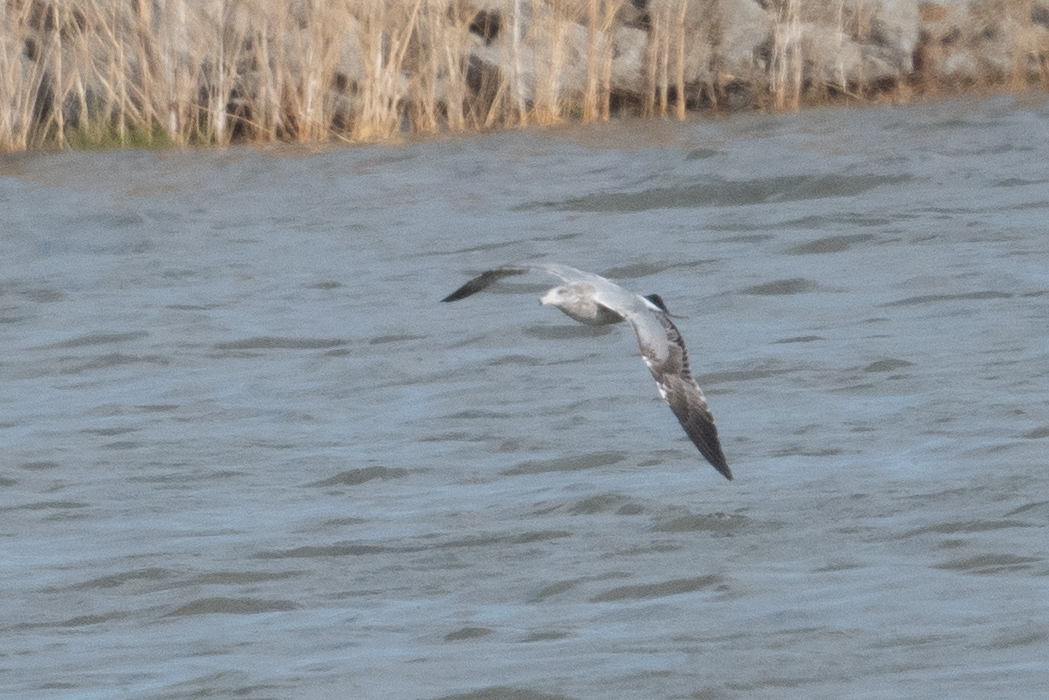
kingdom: Animalia
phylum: Chordata
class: Aves
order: Charadriiformes
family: Laridae
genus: Larus
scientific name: Larus californicus
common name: California gull
